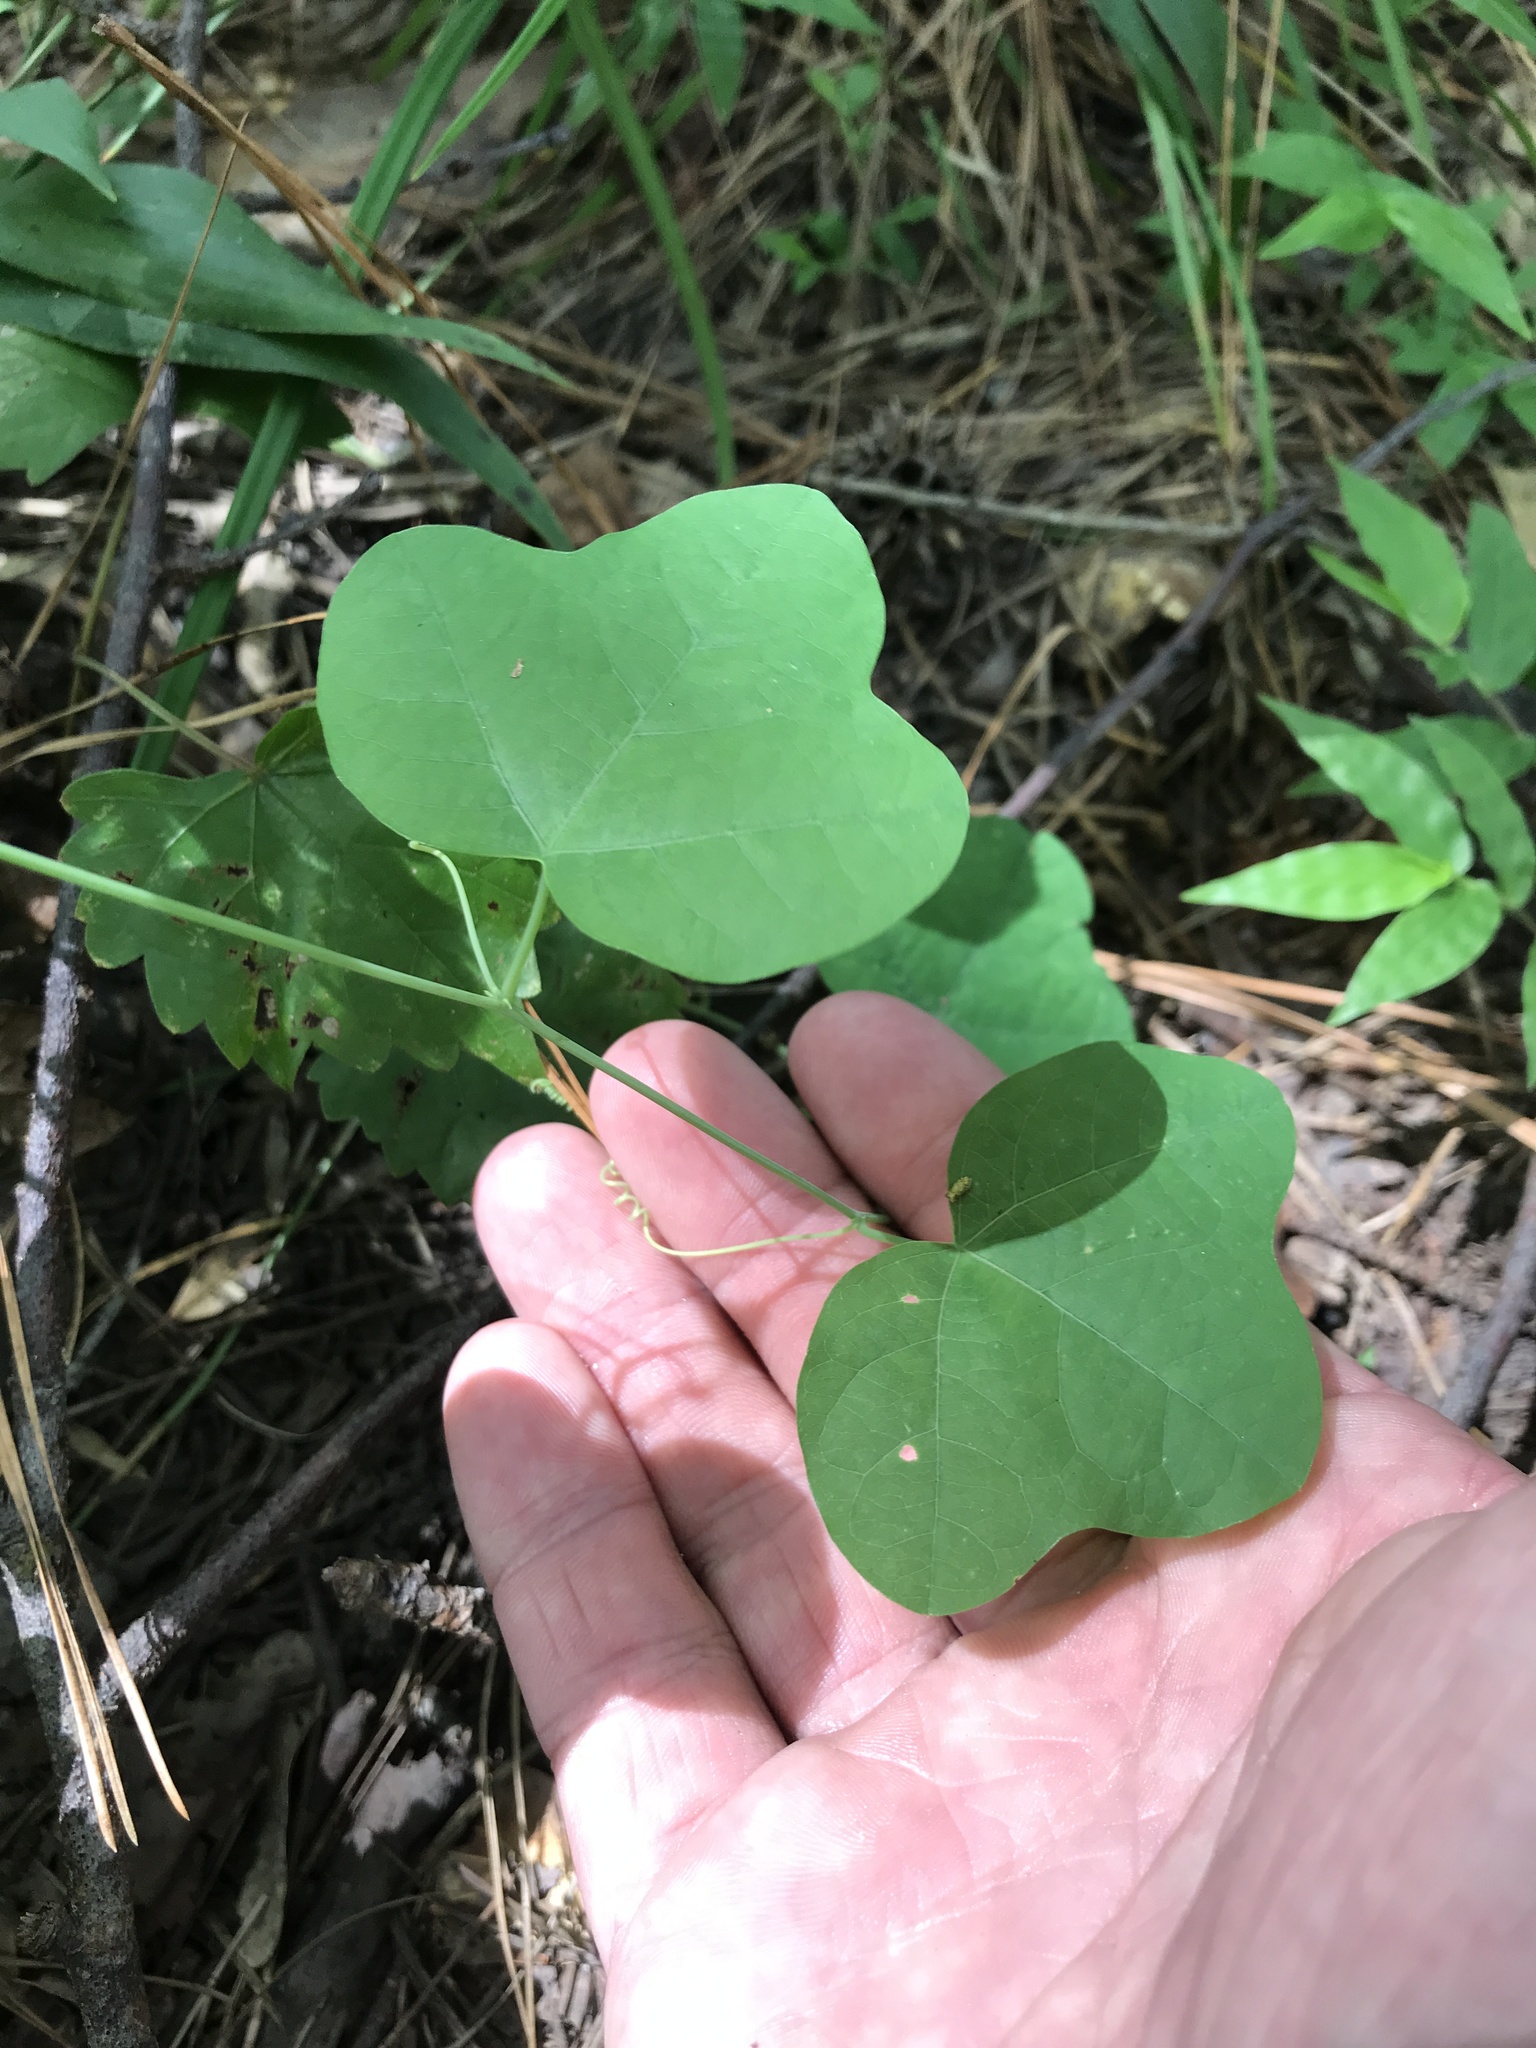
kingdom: Plantae
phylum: Tracheophyta
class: Magnoliopsida
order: Malpighiales
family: Passifloraceae
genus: Passiflora
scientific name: Passiflora lutea
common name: Yellow passionflower
